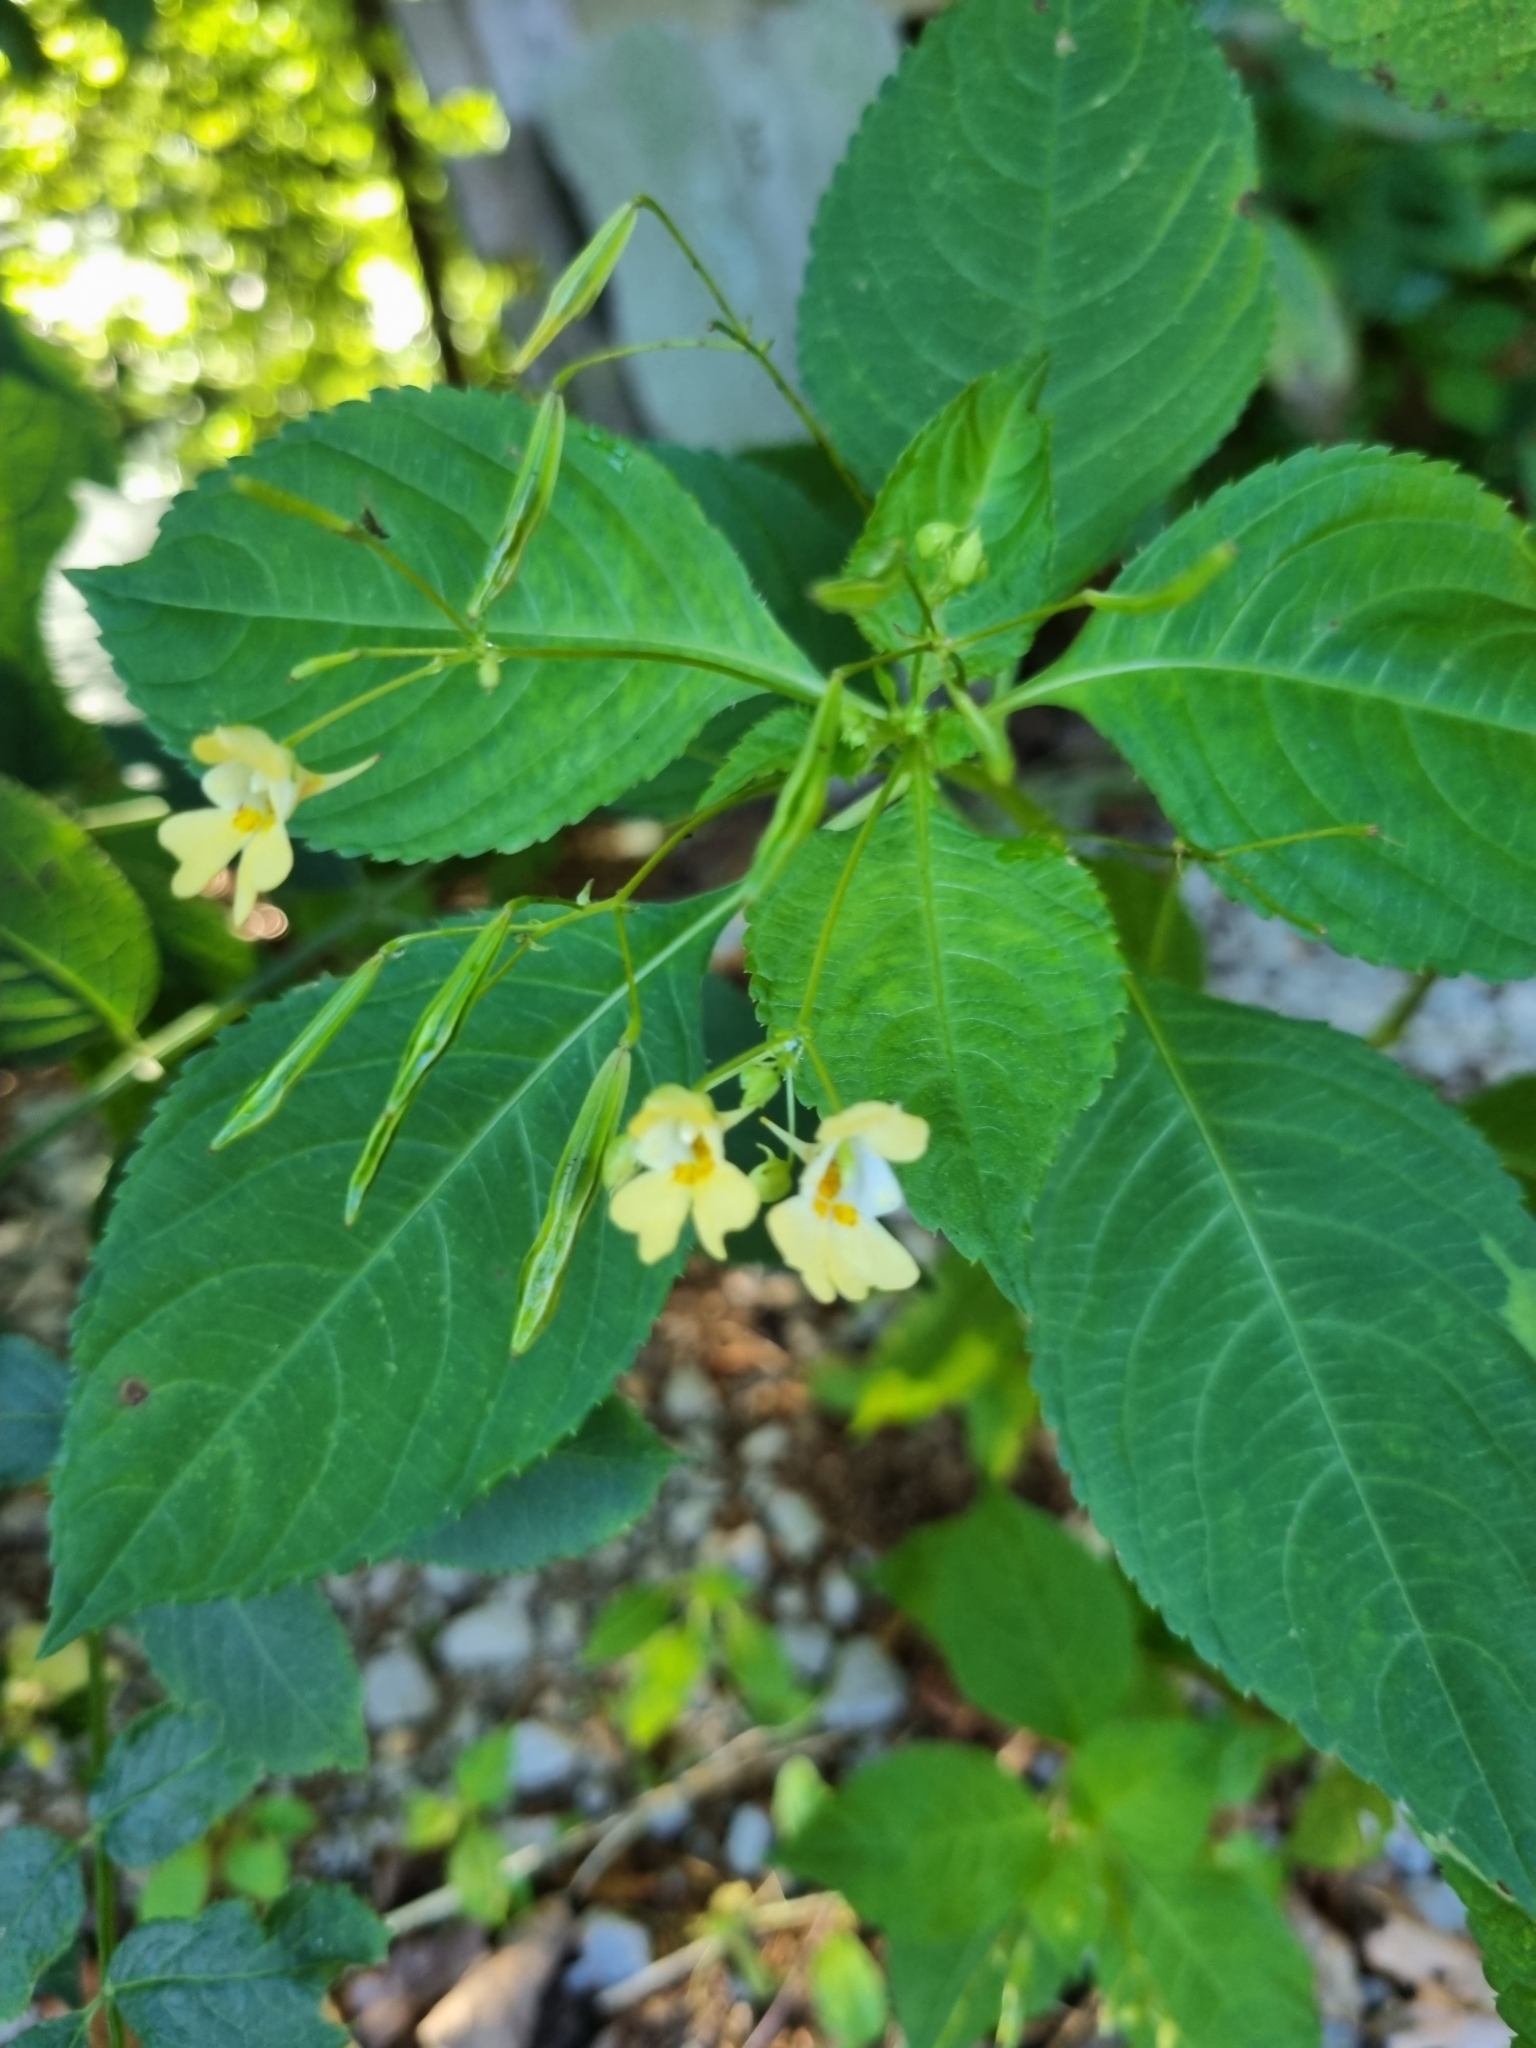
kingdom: Plantae
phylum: Tracheophyta
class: Magnoliopsida
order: Ericales
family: Balsaminaceae
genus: Impatiens
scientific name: Impatiens parviflora
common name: Small balsam
